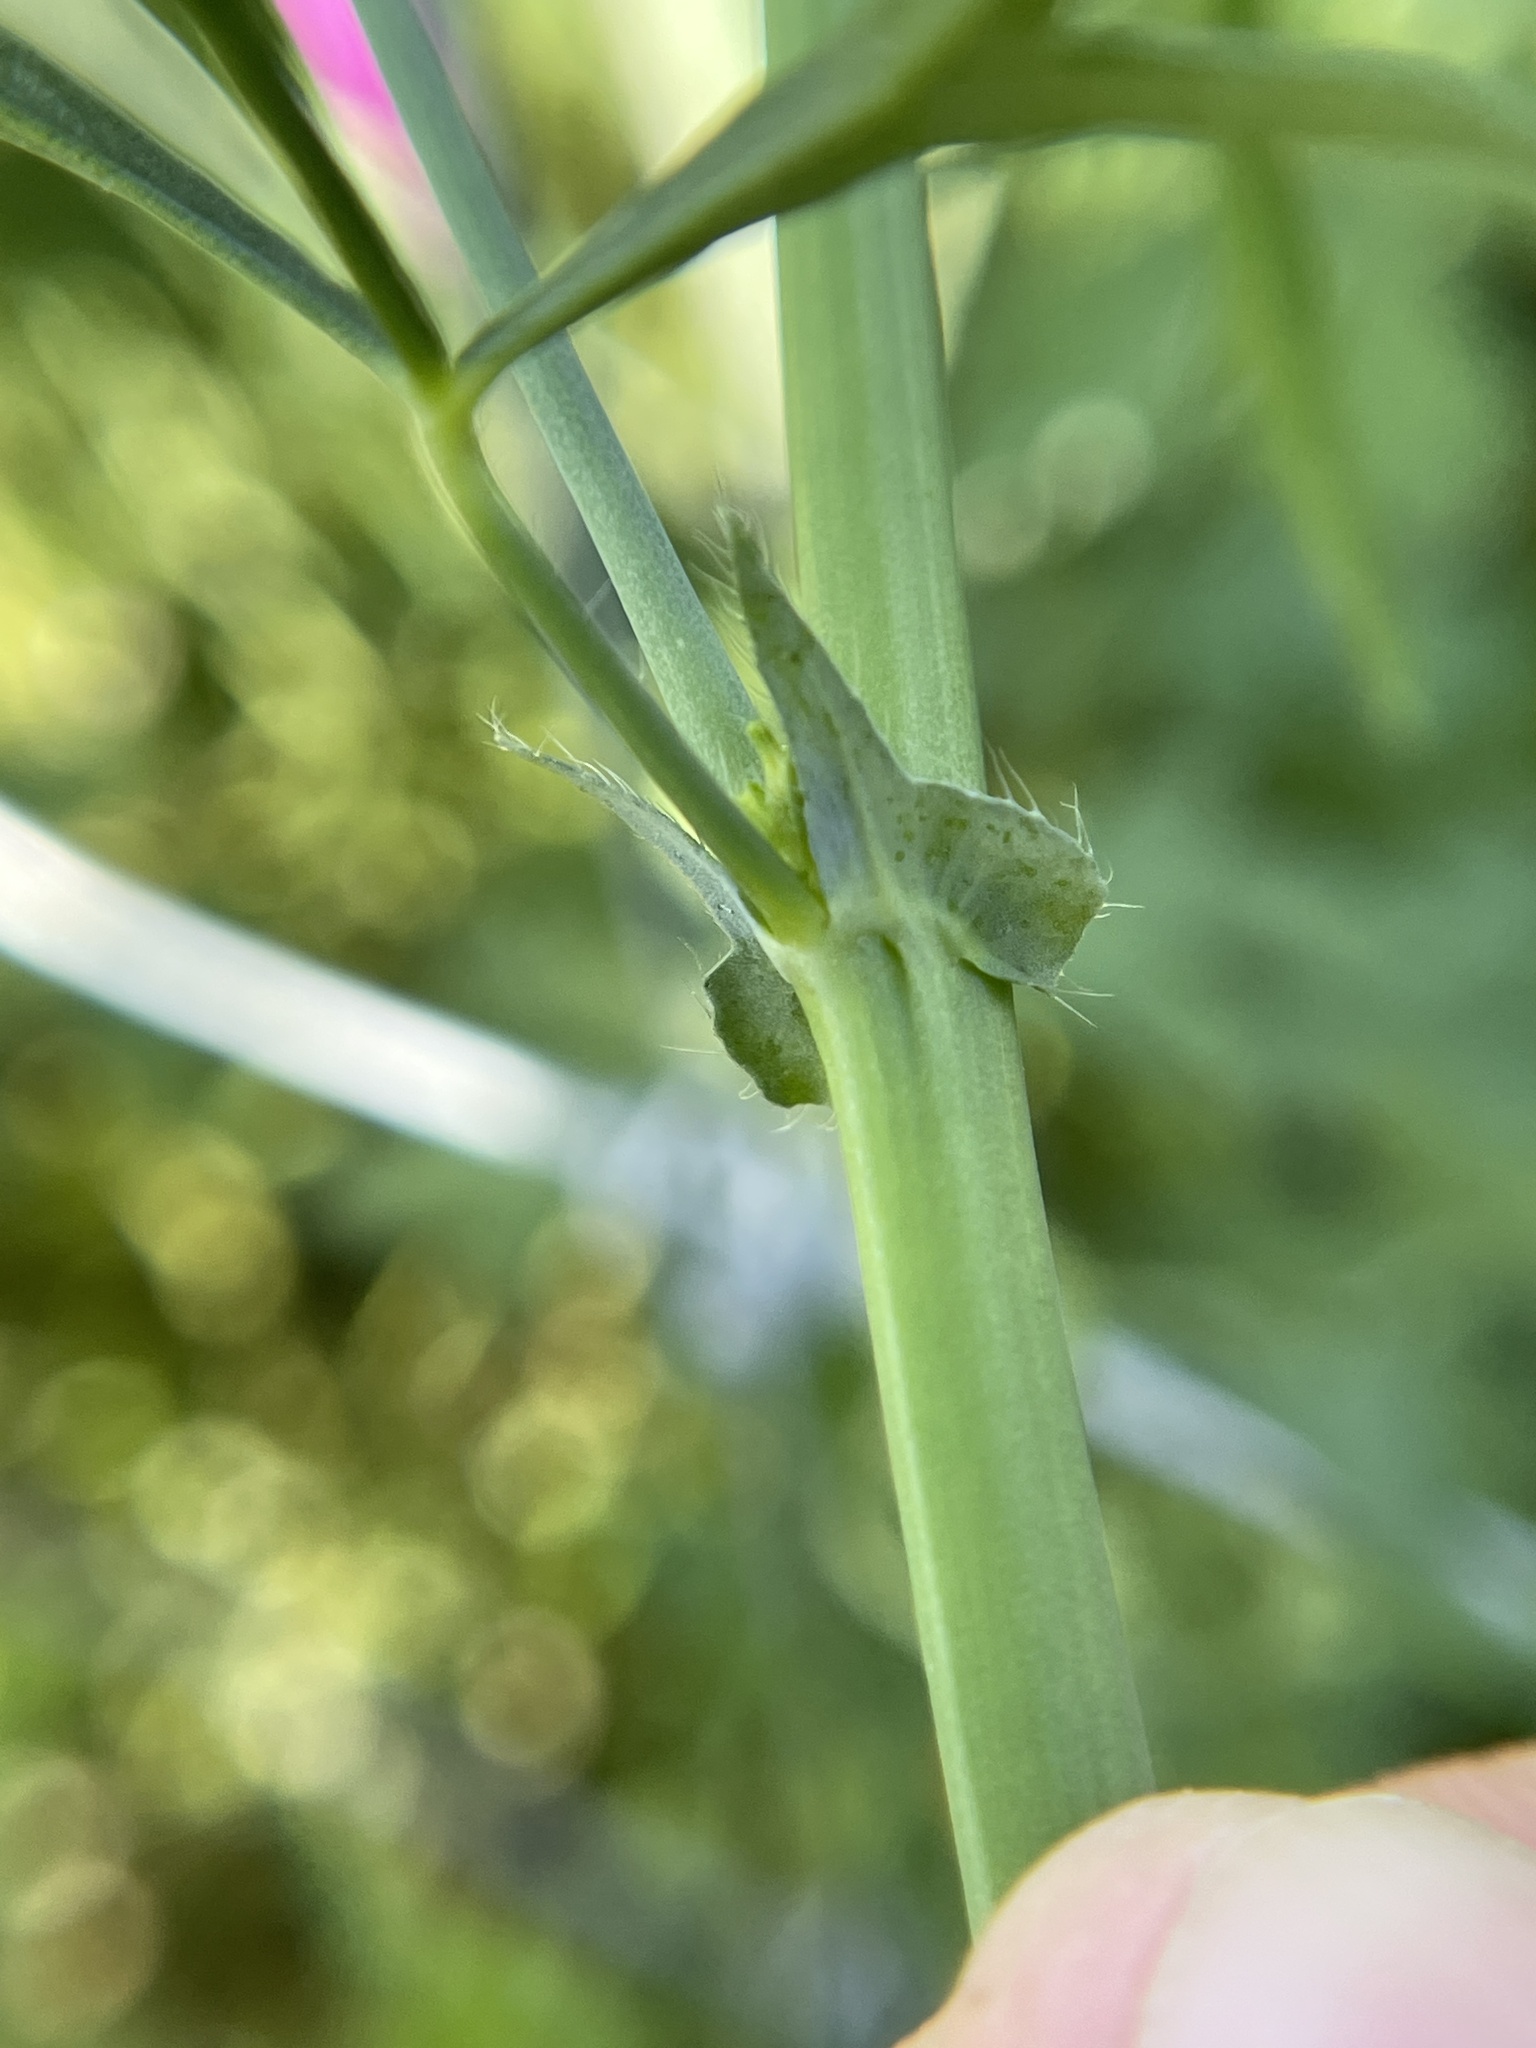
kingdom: Plantae
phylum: Tracheophyta
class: Magnoliopsida
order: Malvales
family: Malvaceae
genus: Callirhoe
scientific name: Callirhoe leiocarpa
